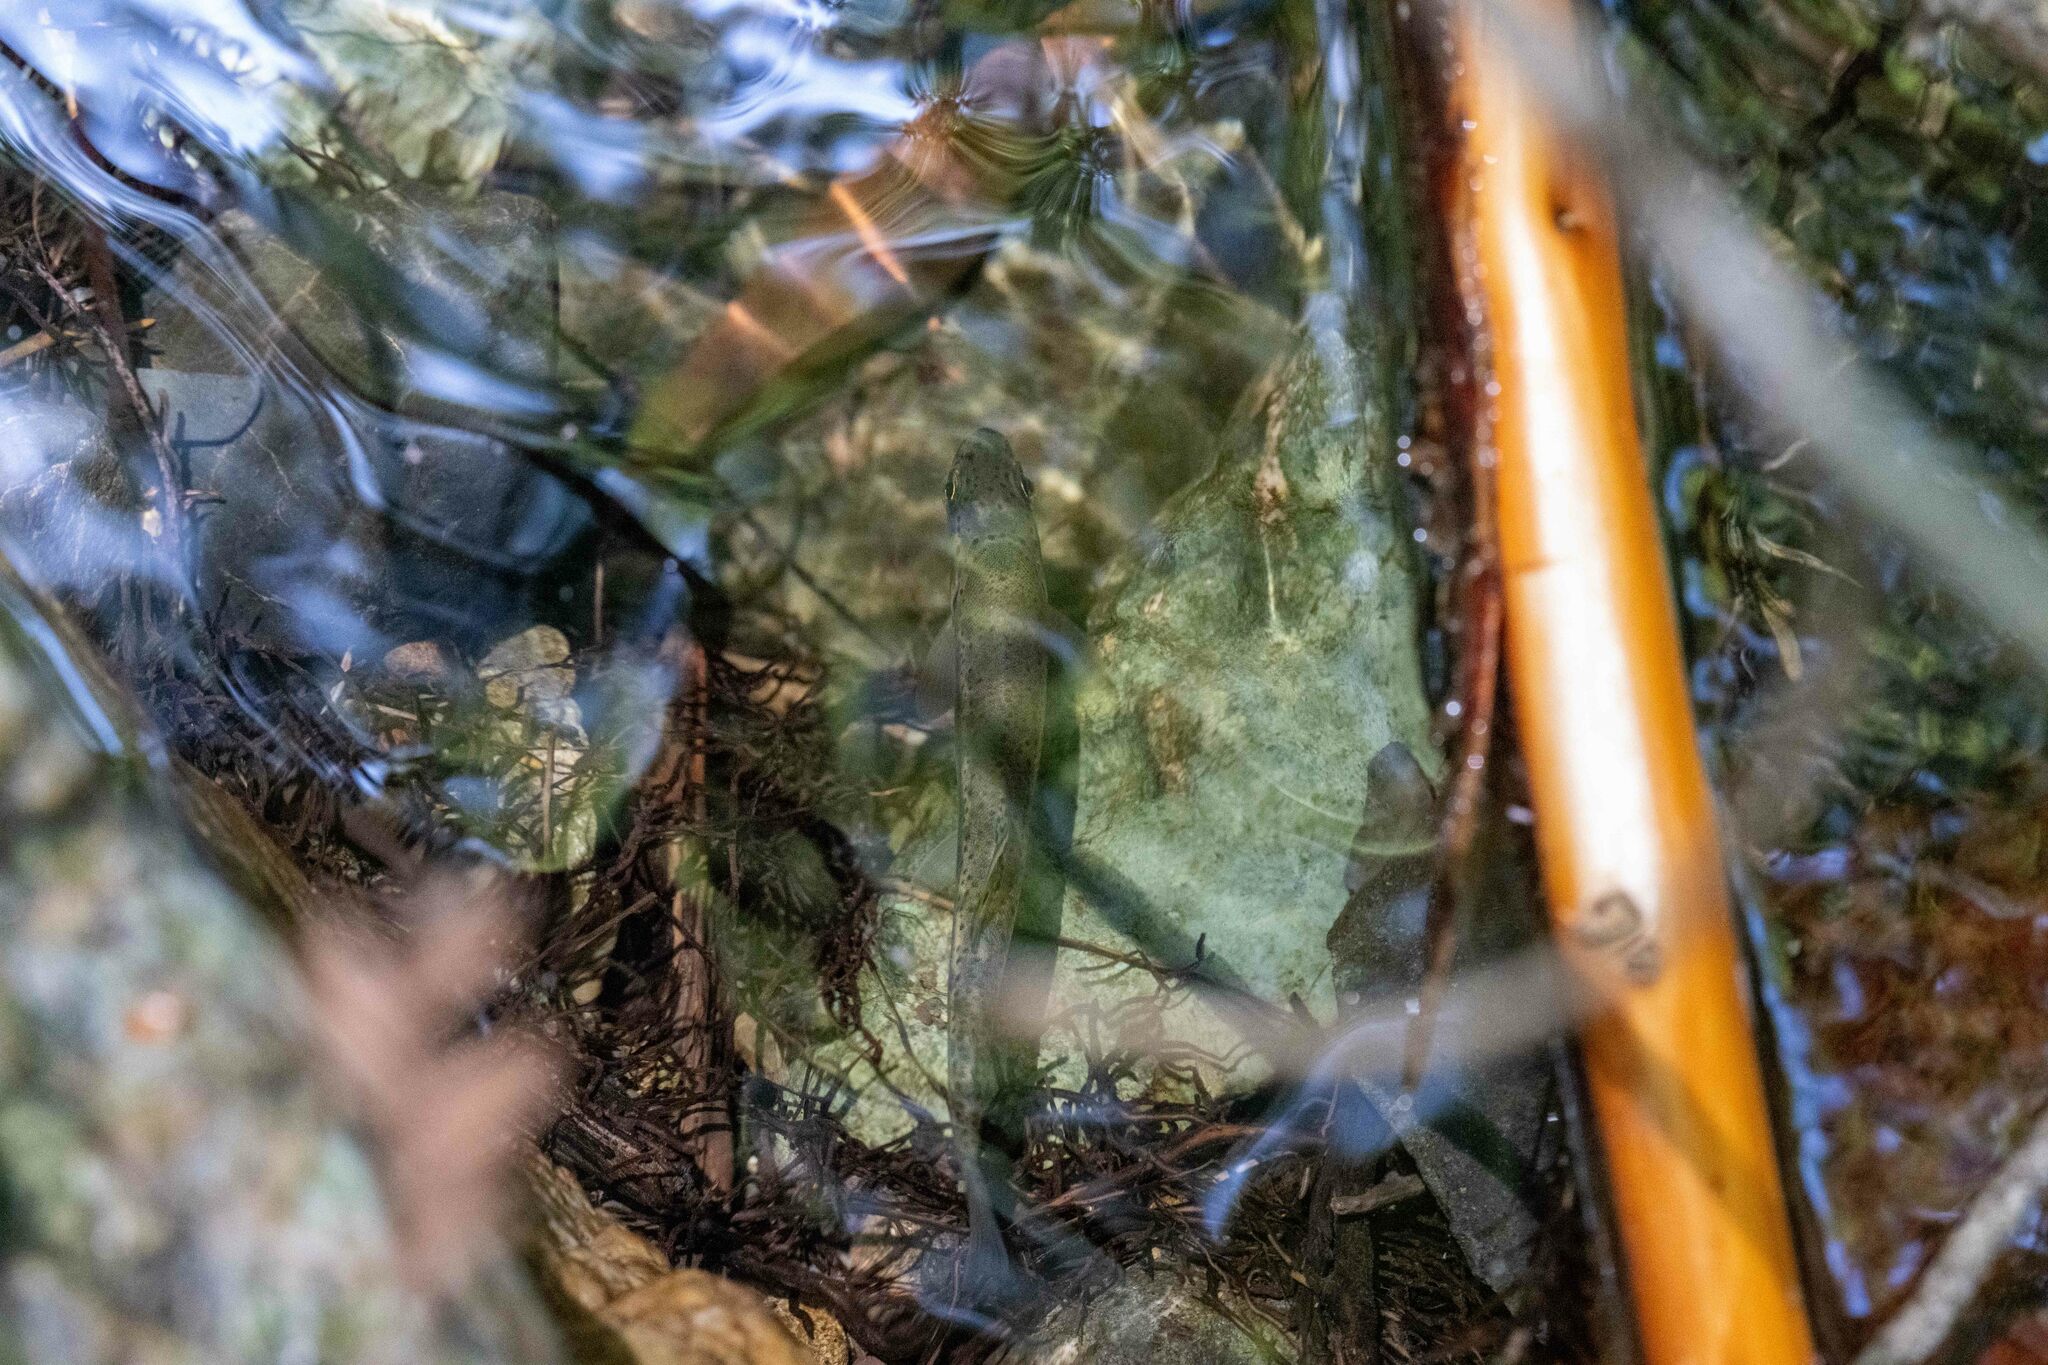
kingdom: Animalia
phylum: Chordata
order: Salmoniformes
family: Salmonidae
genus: Oncorhynchus
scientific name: Oncorhynchus mykiss
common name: Rainbow trout
